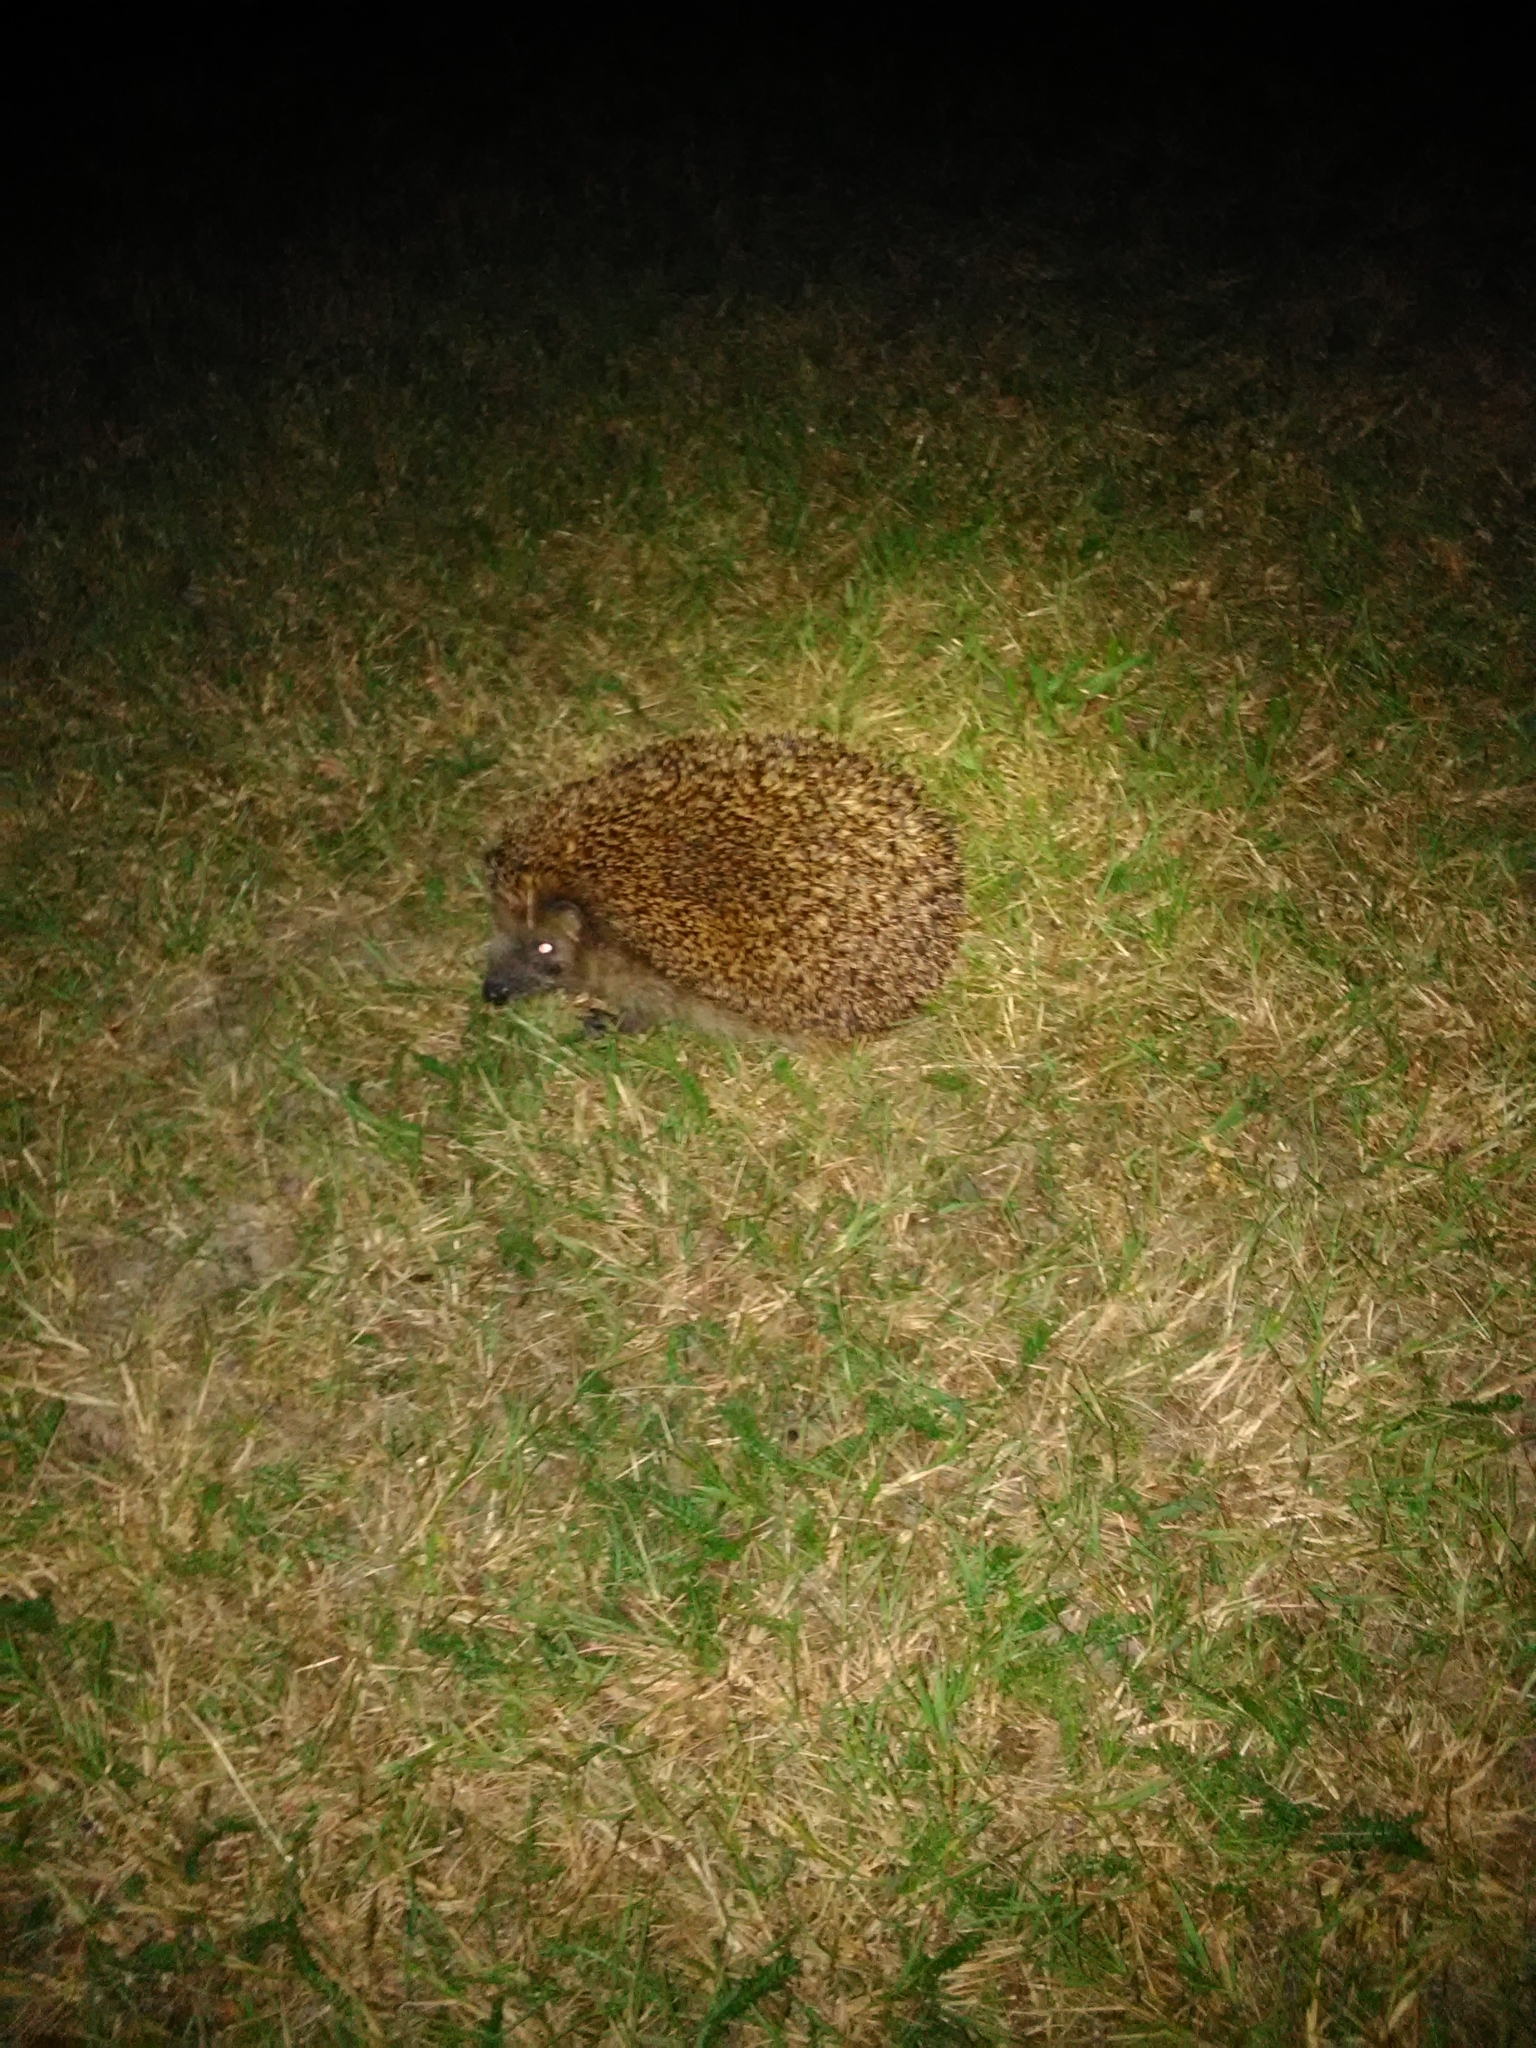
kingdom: Animalia
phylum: Chordata
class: Mammalia
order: Erinaceomorpha
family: Erinaceidae
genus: Erinaceus
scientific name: Erinaceus europaeus
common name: West european hedgehog
